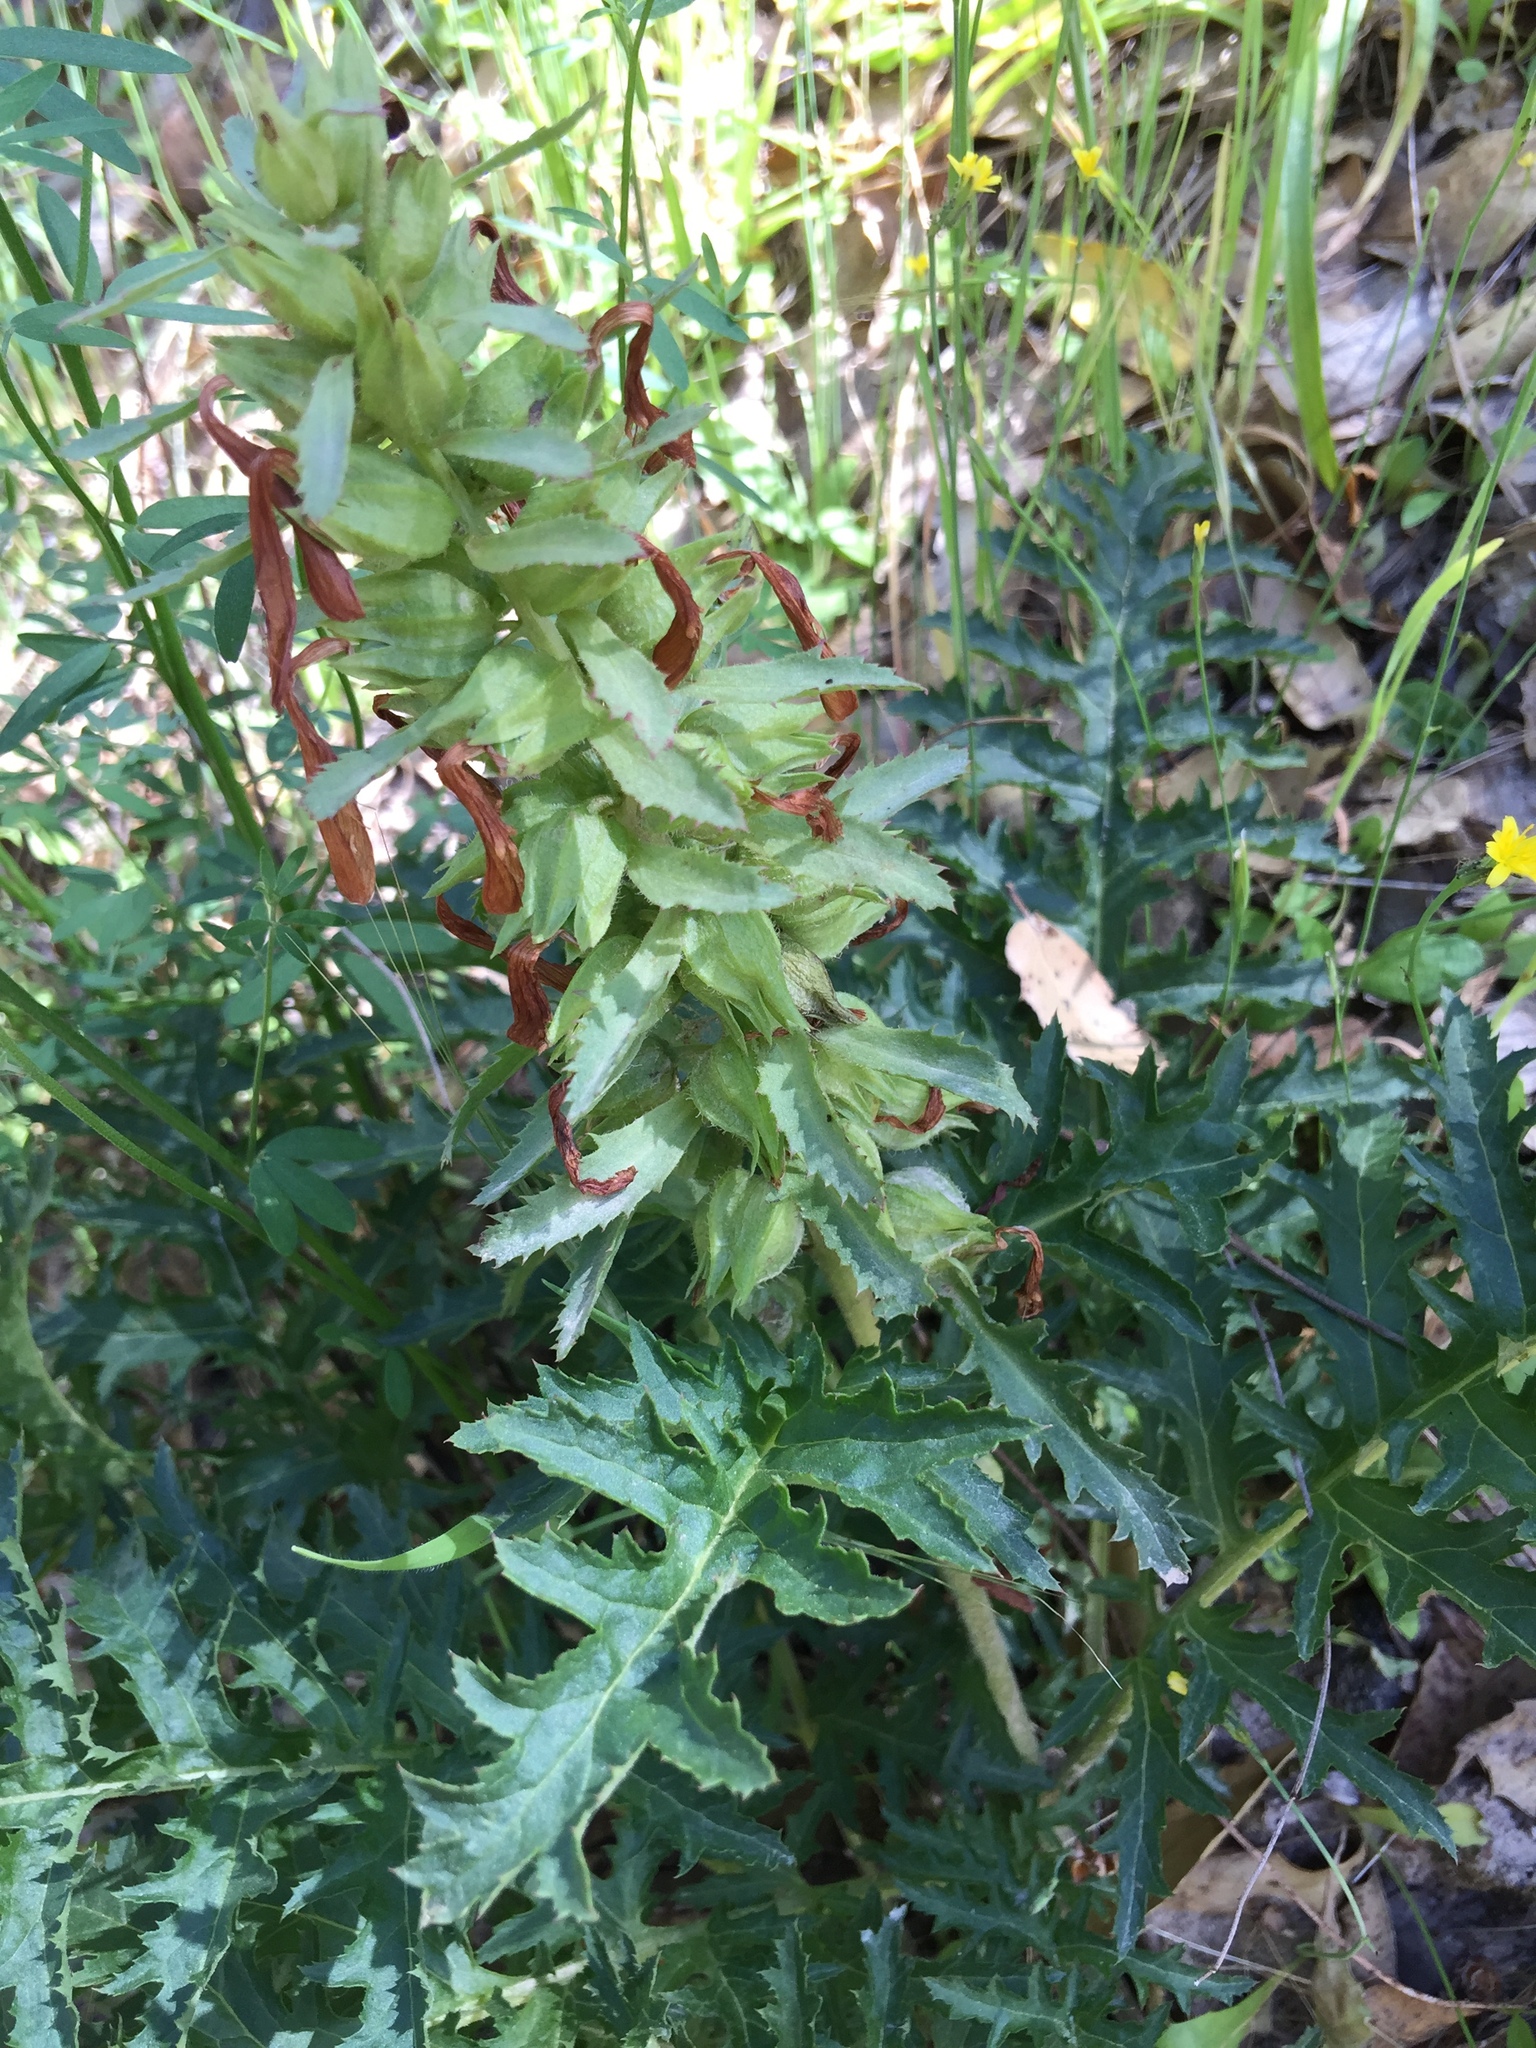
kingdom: Plantae
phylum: Tracheophyta
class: Magnoliopsida
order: Lamiales
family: Orobanchaceae
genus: Pedicularis
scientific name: Pedicularis densiflora
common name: Indian warrior
